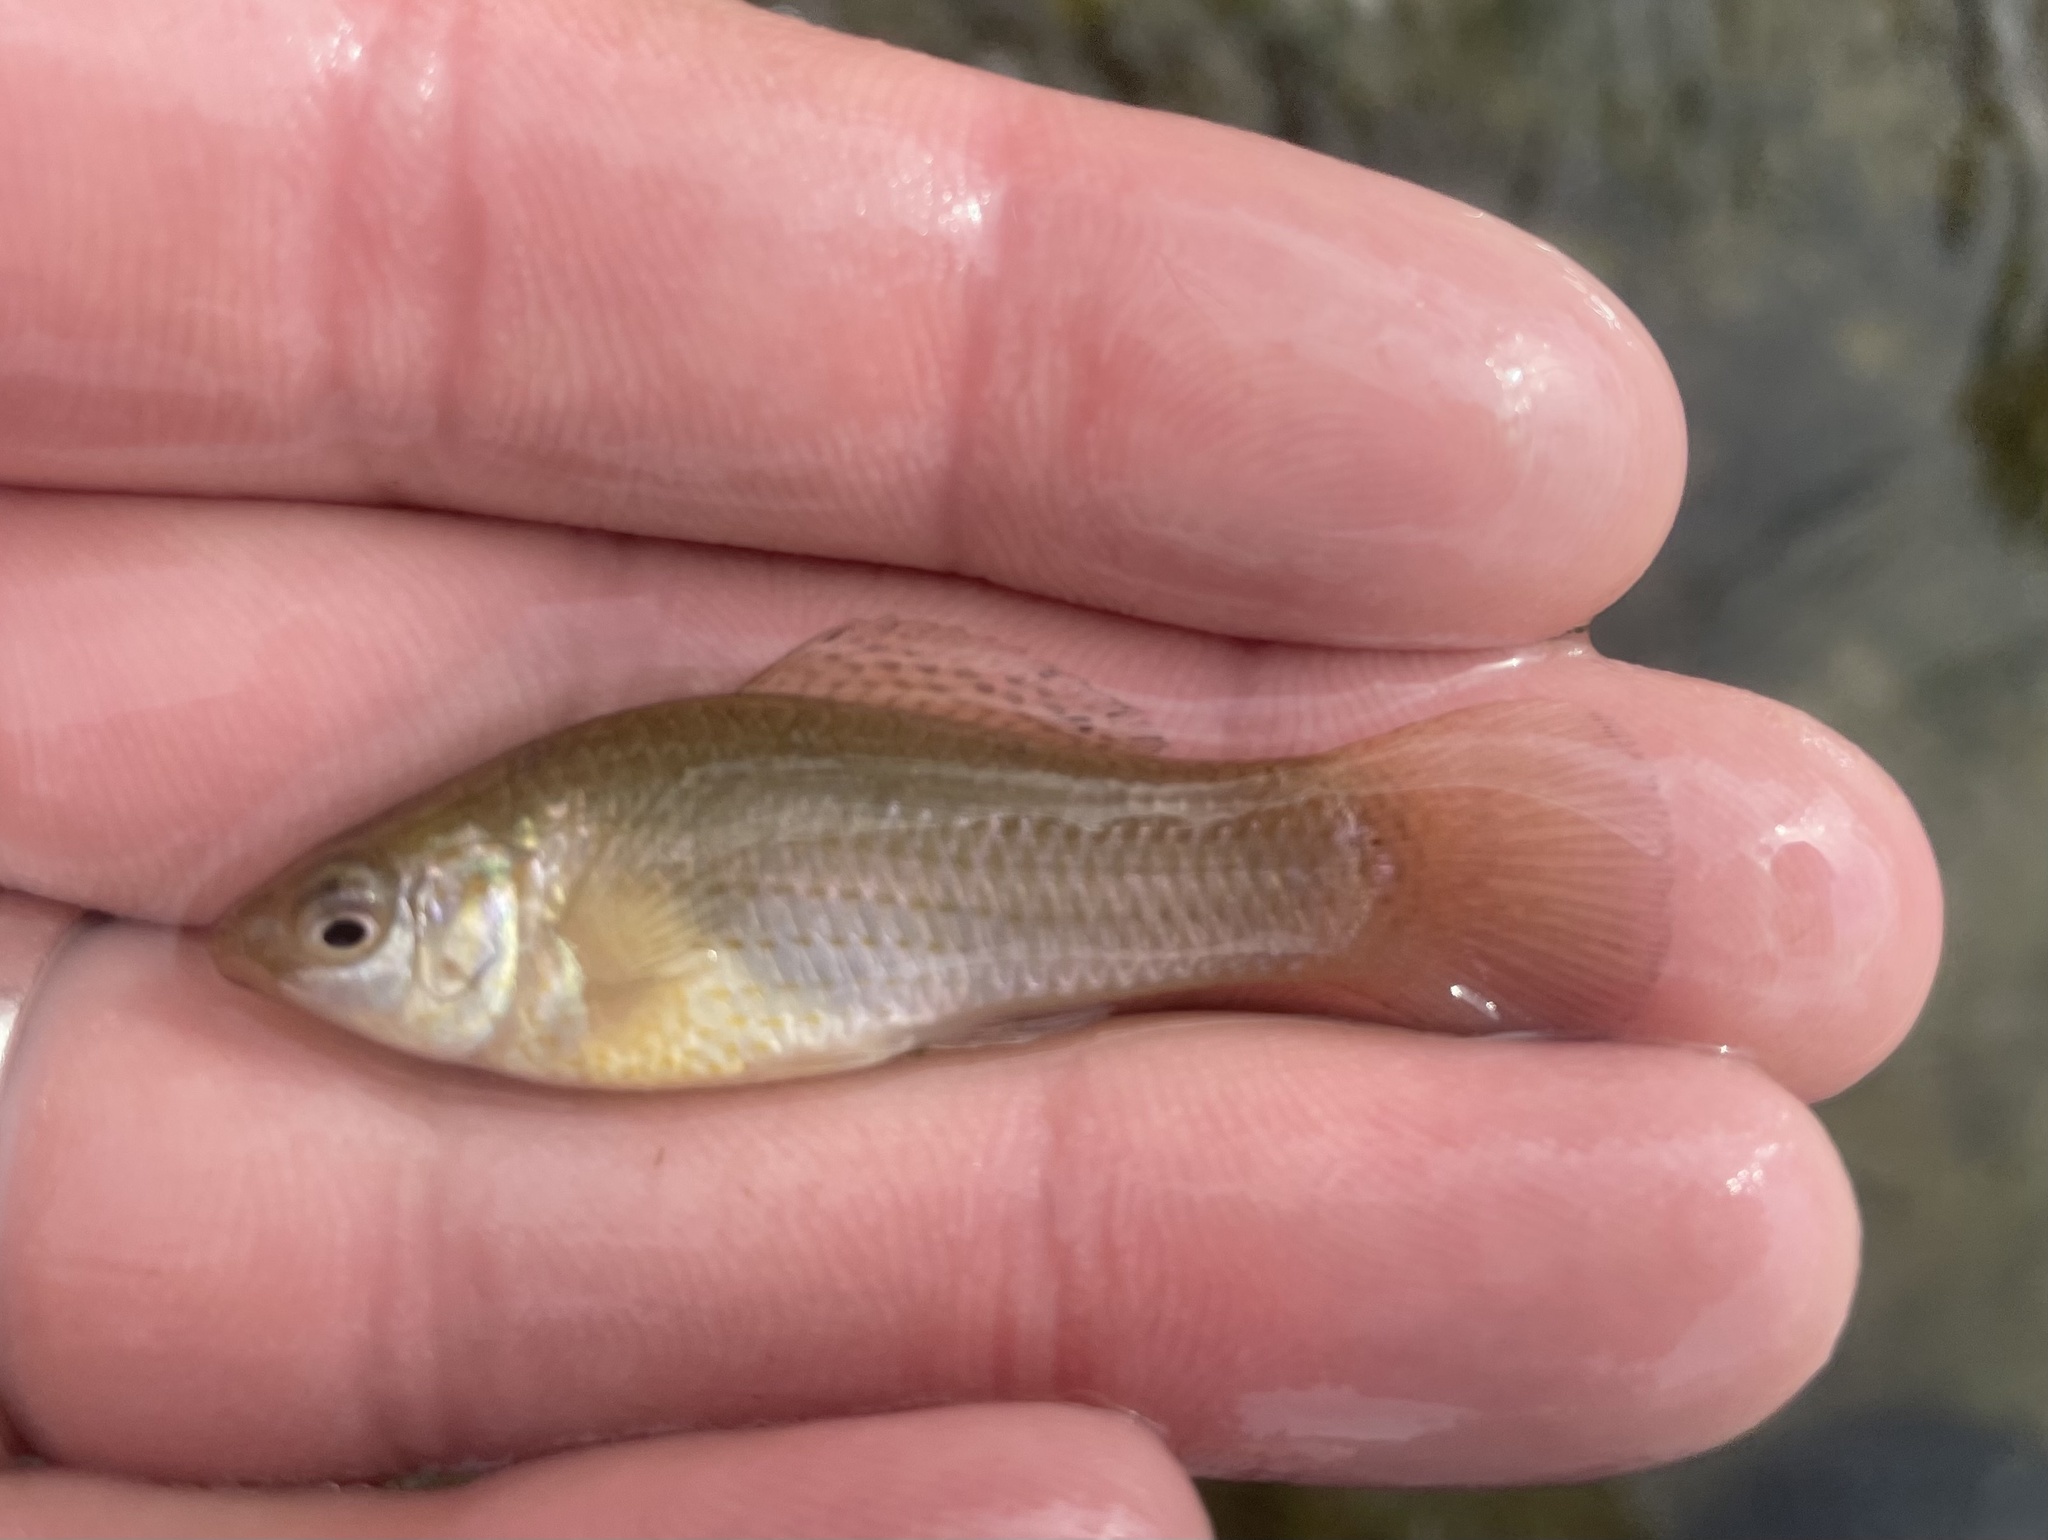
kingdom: Animalia
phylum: Chordata
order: Cyprinodontiformes
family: Poeciliidae
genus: Poecilia
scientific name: Poecilia latipinna
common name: Sailfin molly
